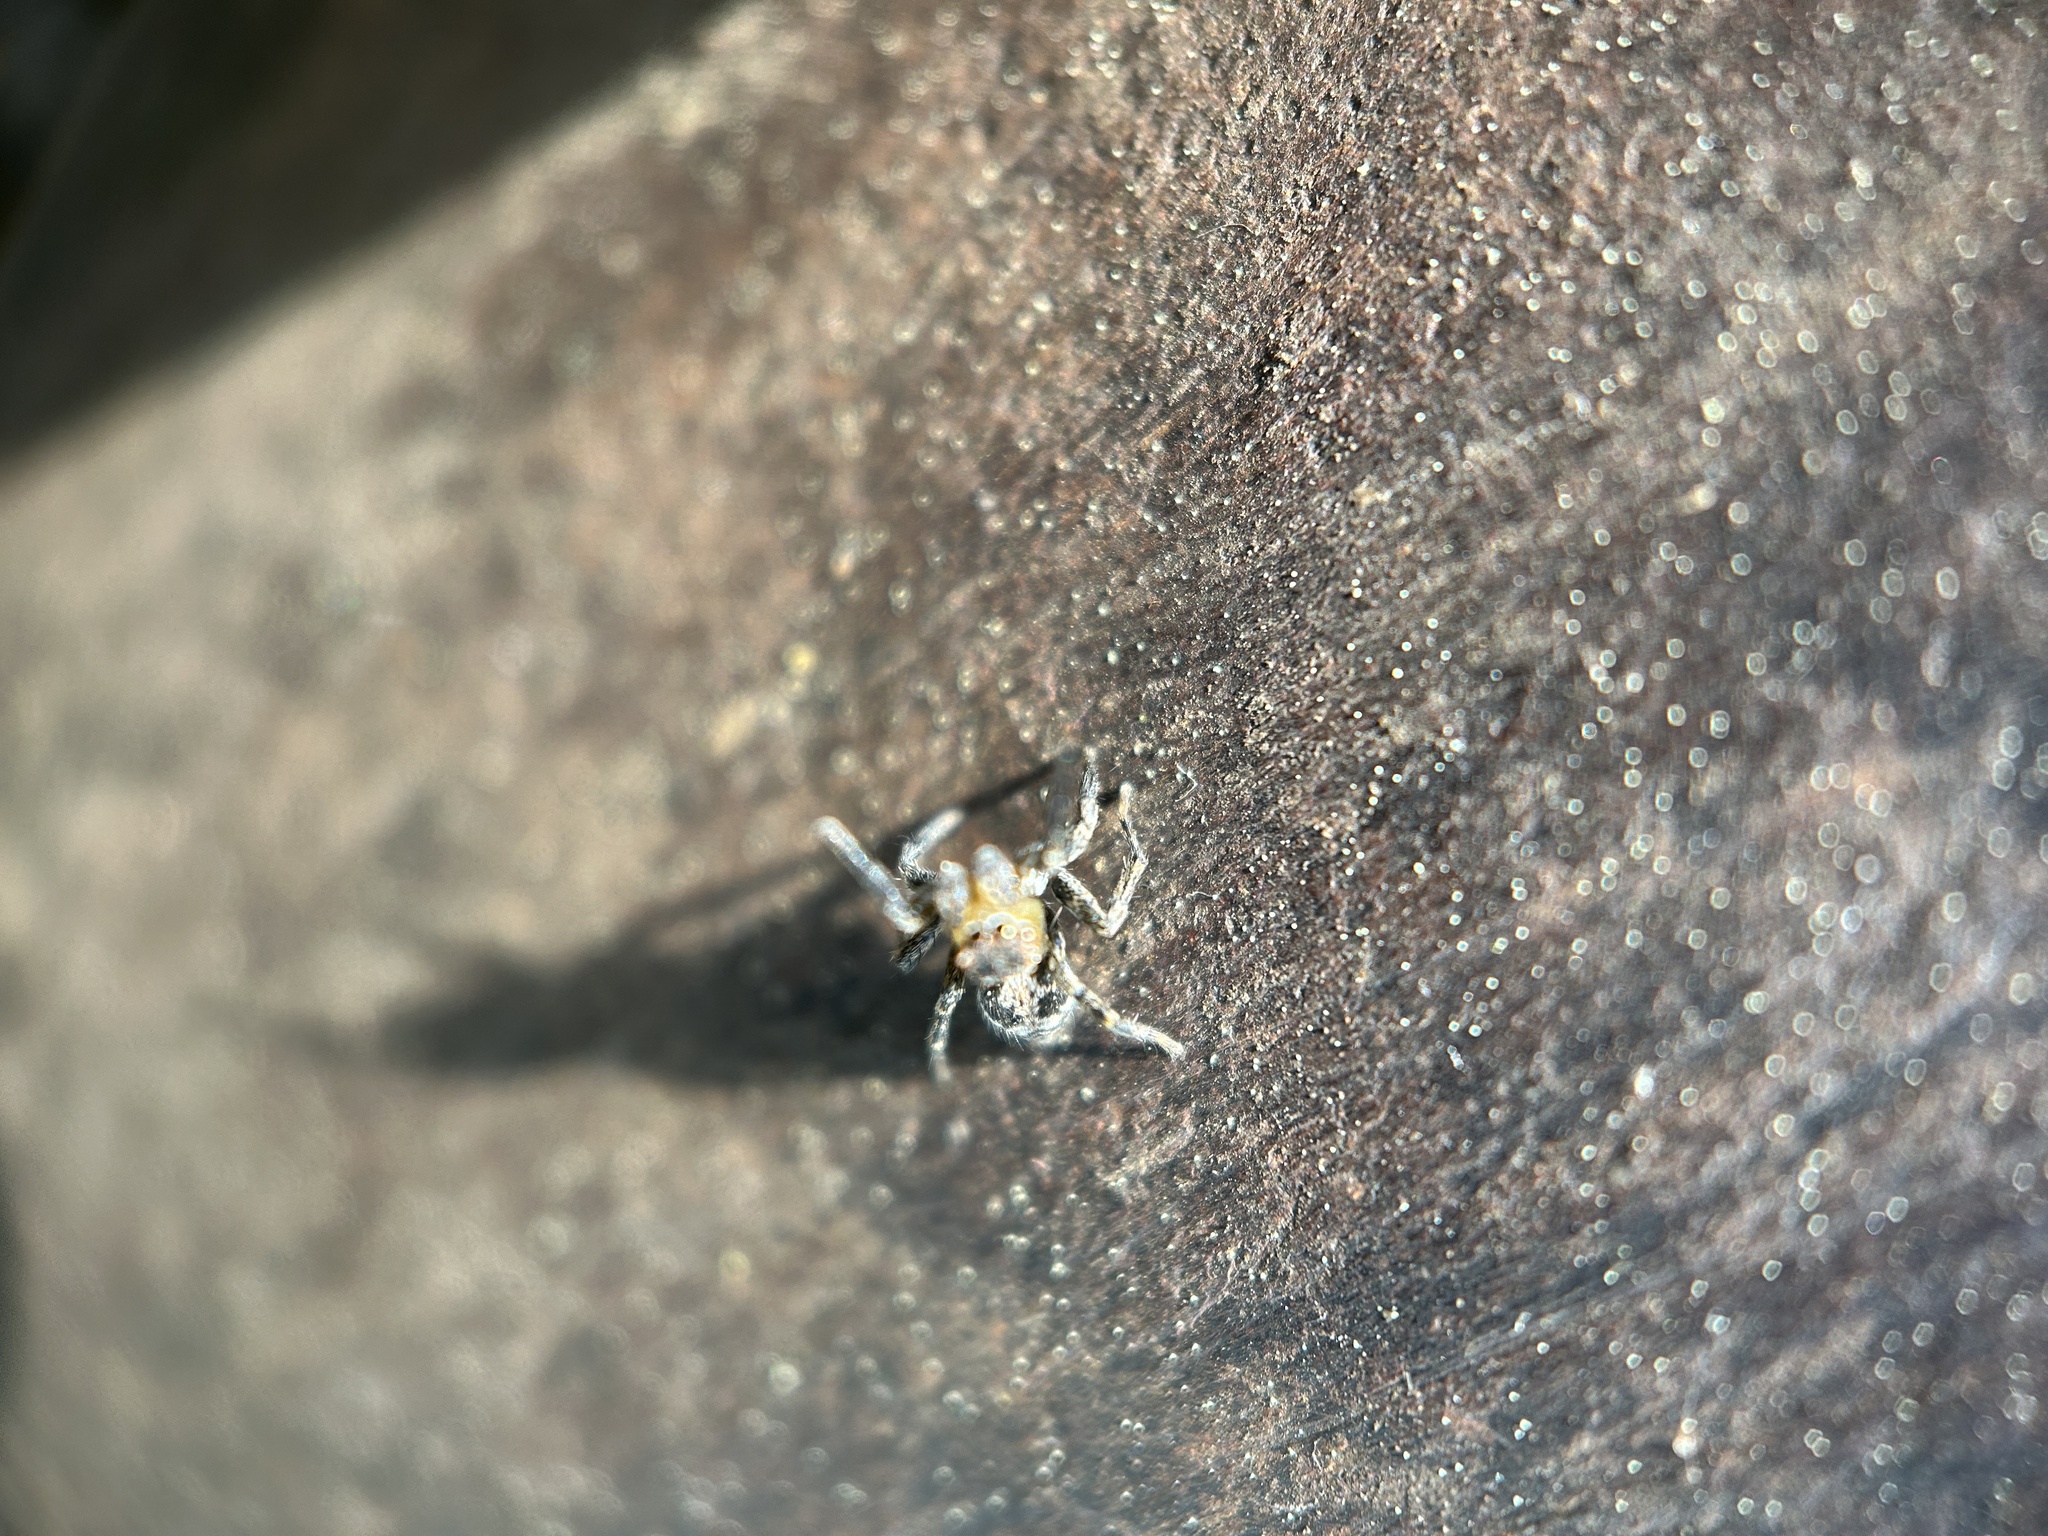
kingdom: Animalia
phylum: Arthropoda
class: Arachnida
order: Araneae
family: Salticidae
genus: Naphrys
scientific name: Naphrys pulex
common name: Flea jumping spider
